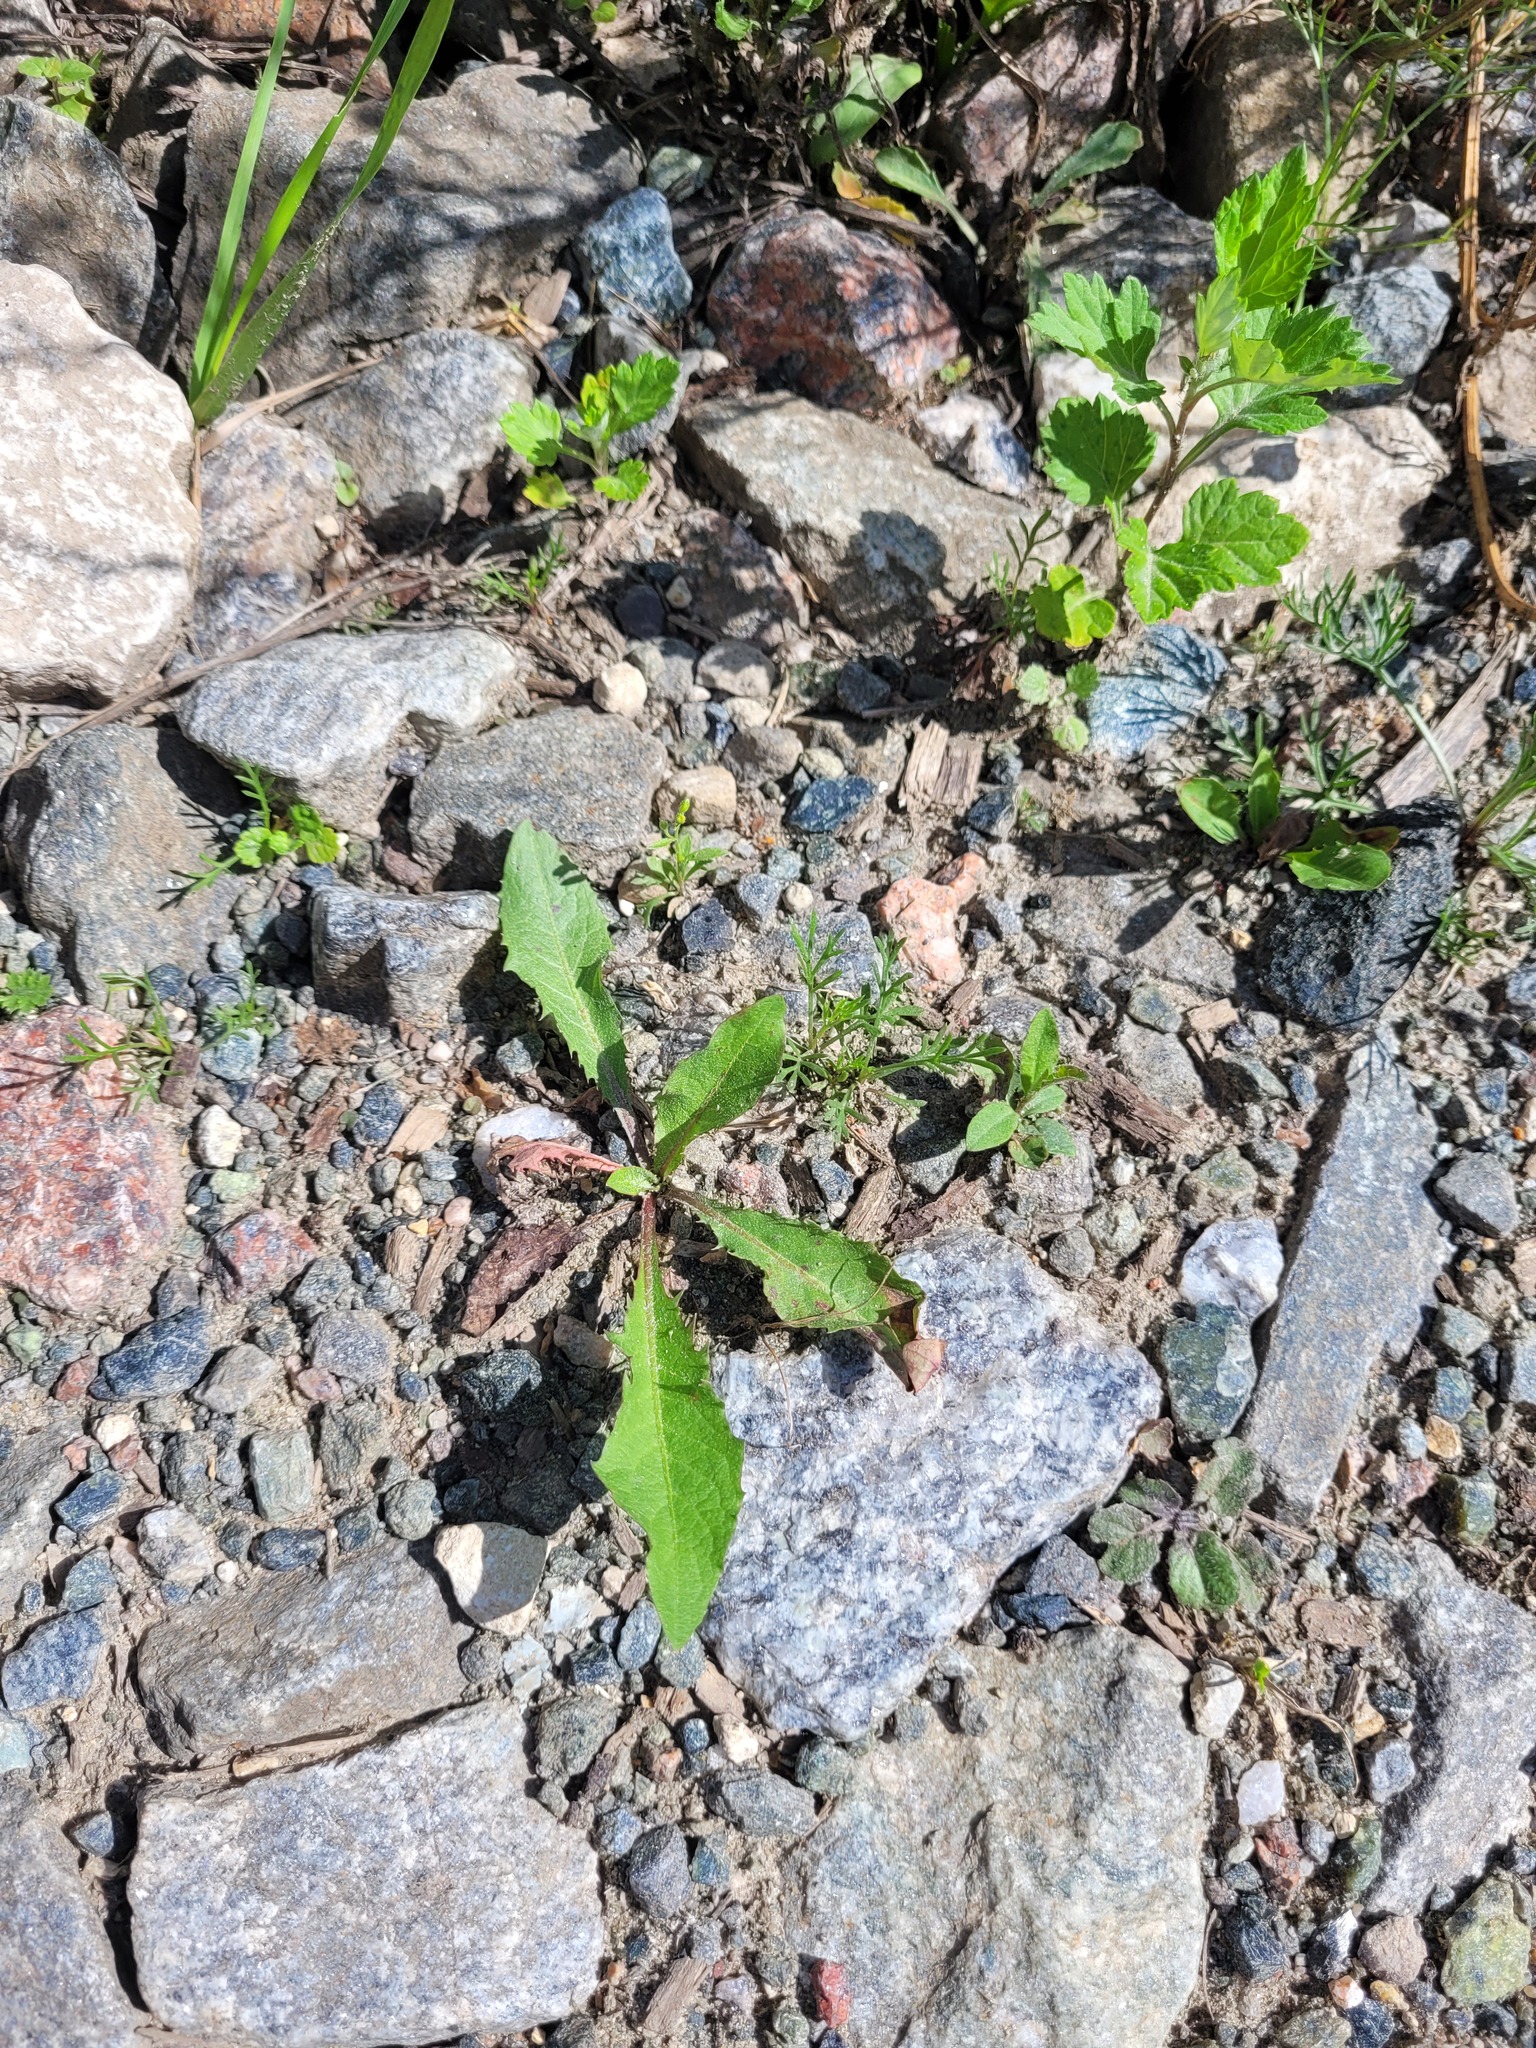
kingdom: Plantae
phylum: Tracheophyta
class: Magnoliopsida
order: Asterales
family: Asteraceae
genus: Taraxacum
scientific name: Taraxacum officinale
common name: Common dandelion
